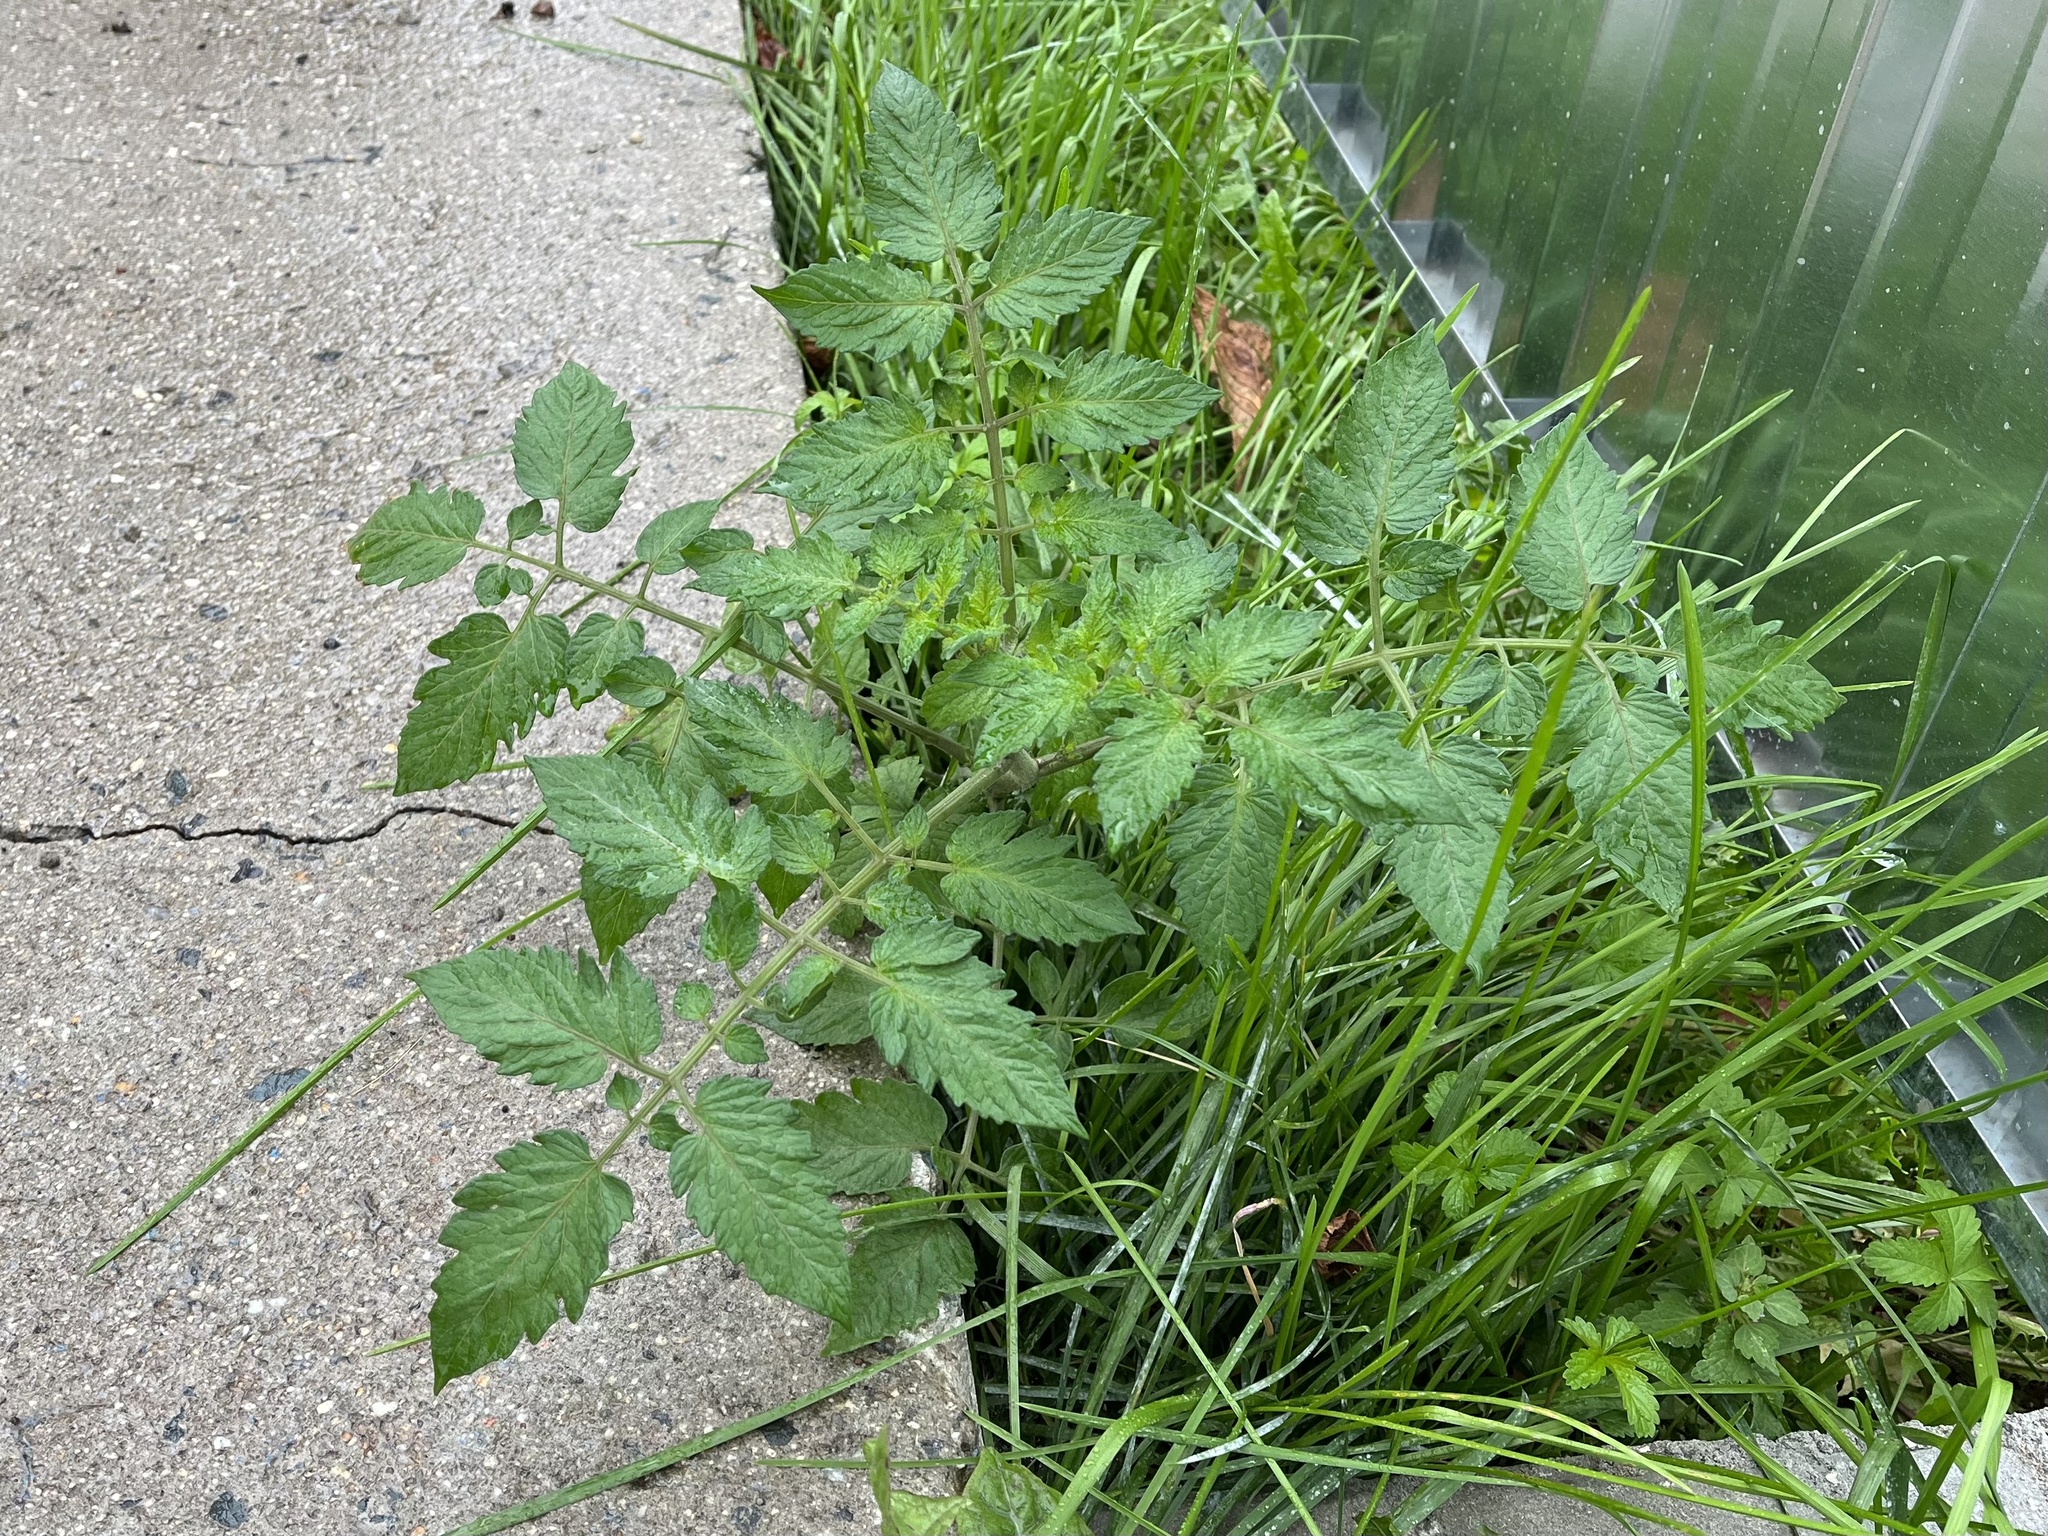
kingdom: Plantae
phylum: Tracheophyta
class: Magnoliopsida
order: Solanales
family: Solanaceae
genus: Solanum
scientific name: Solanum lycopersicum
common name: Garden tomato
